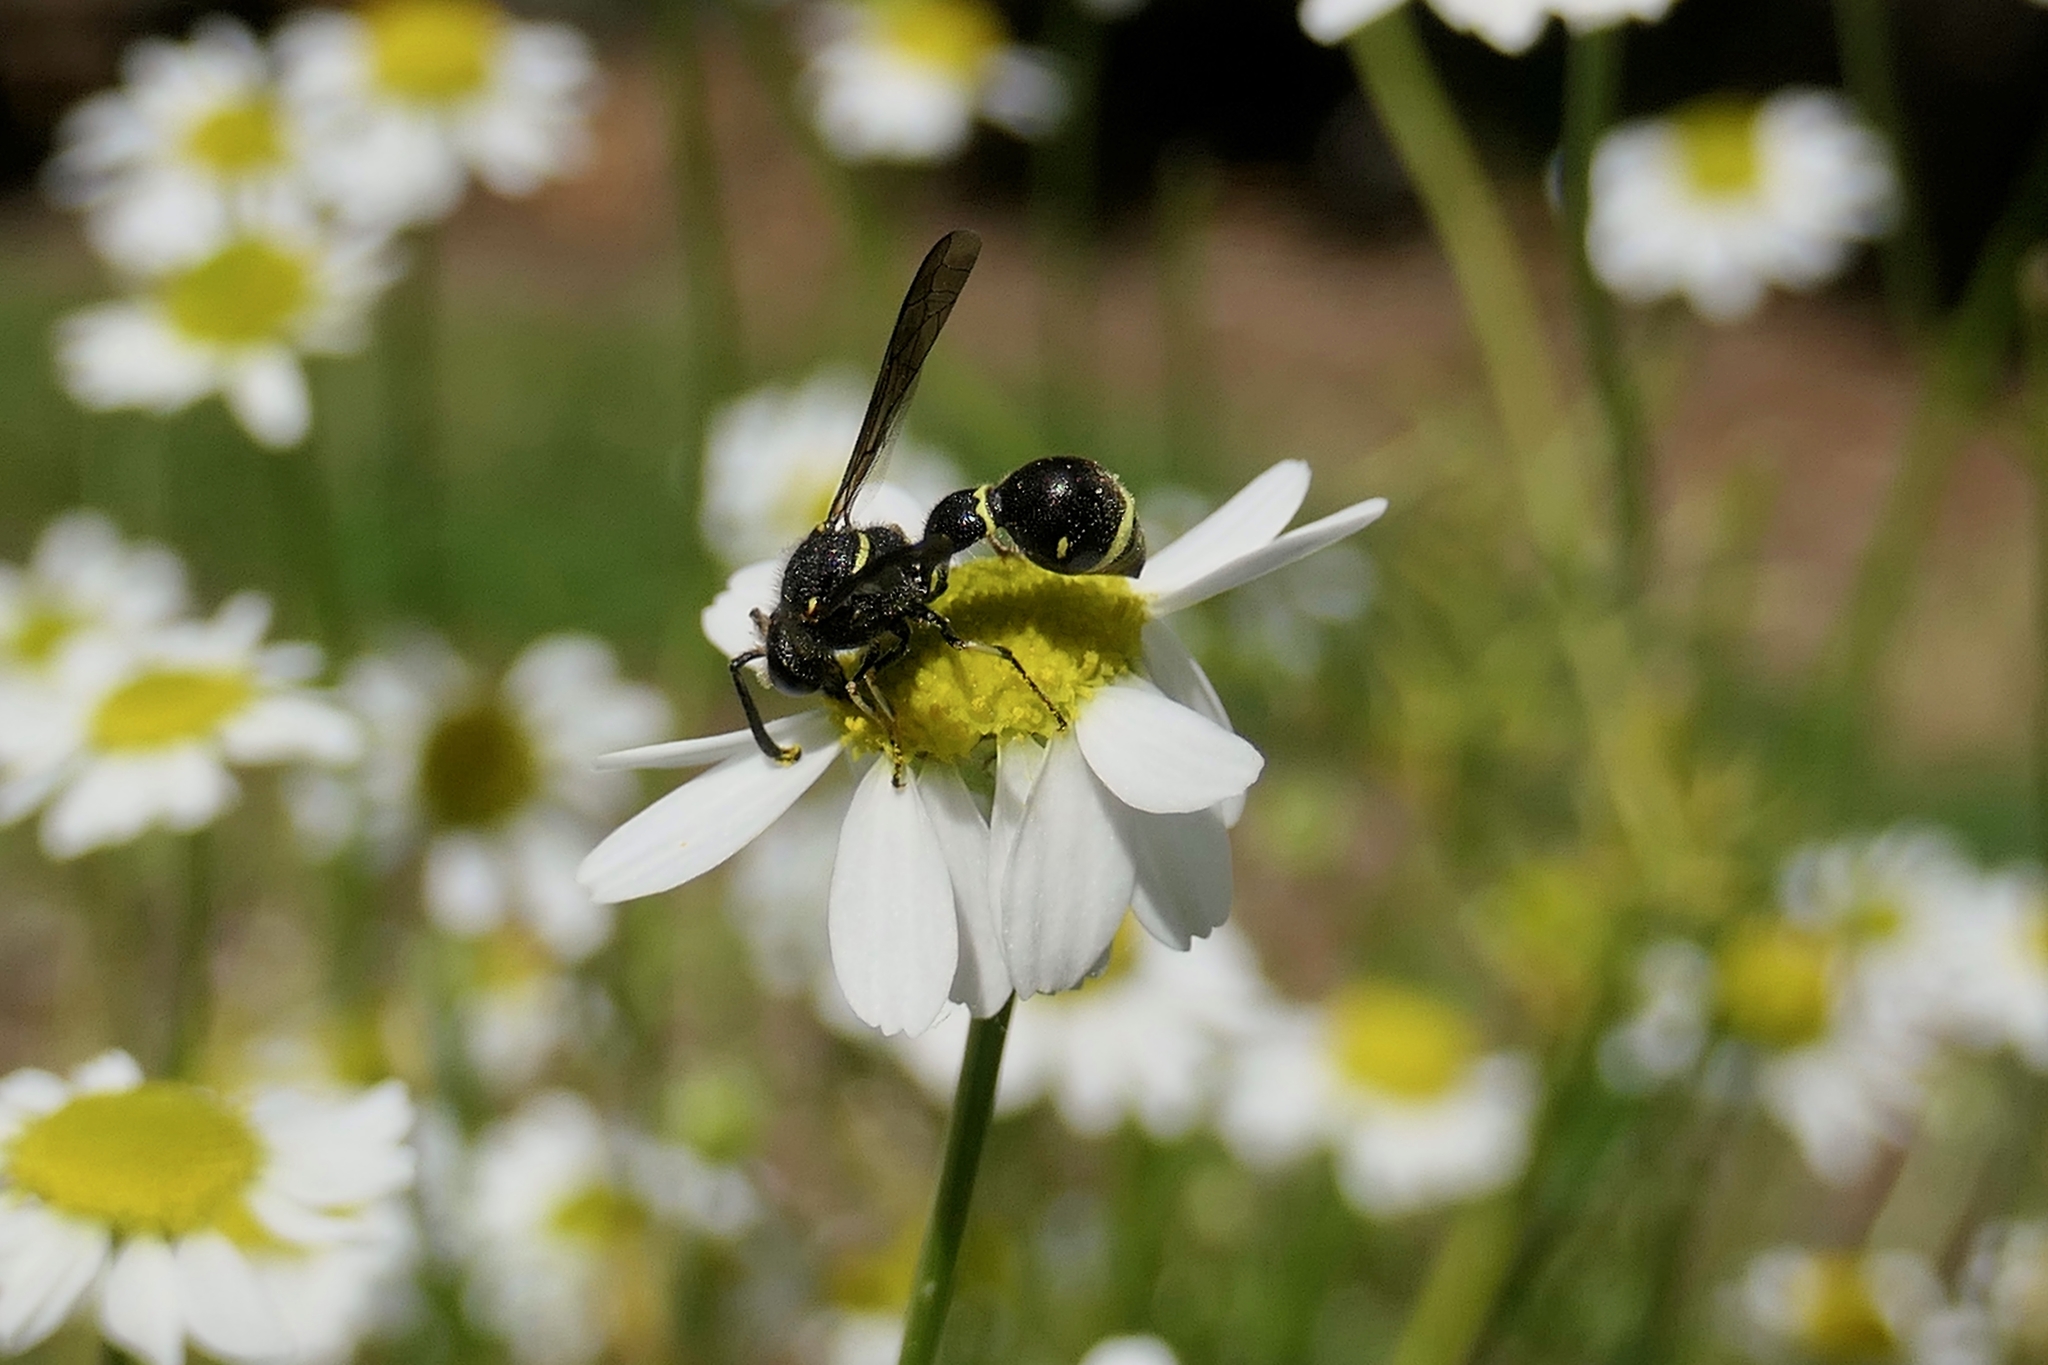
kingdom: Animalia
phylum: Arthropoda
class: Insecta
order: Hymenoptera
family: Vespidae
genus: Eumenes
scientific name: Eumenes consobrinus
